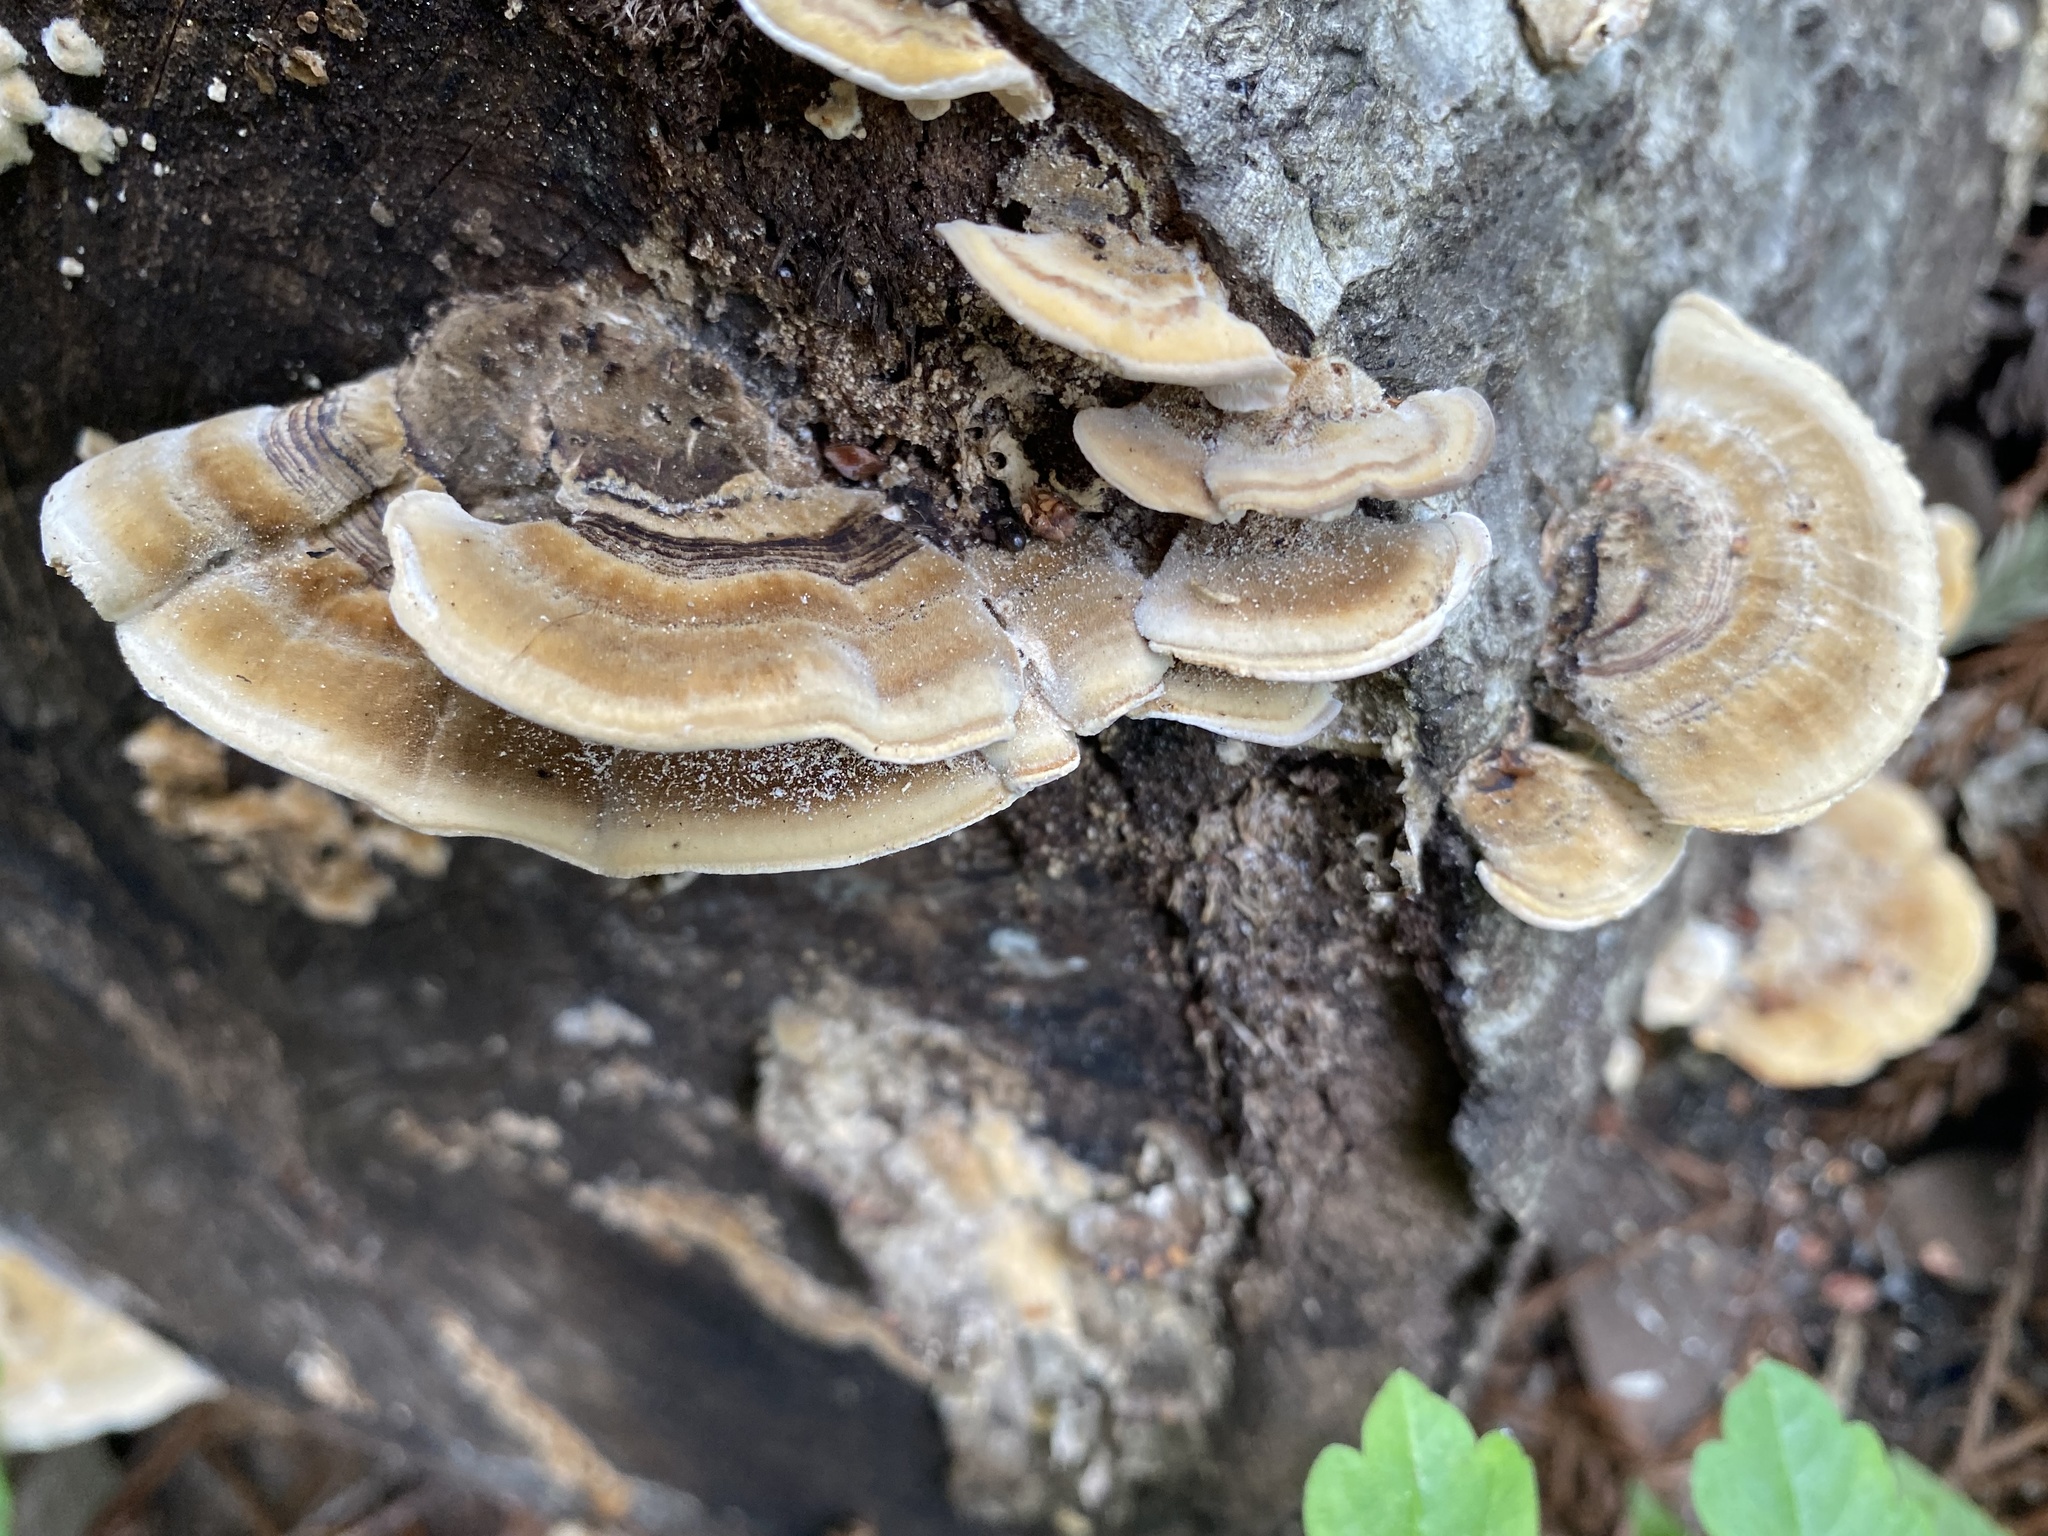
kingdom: Fungi
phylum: Basidiomycota
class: Agaricomycetes
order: Polyporales
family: Polyporaceae
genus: Trametes
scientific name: Trametes versicolor
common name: Turkeytail
